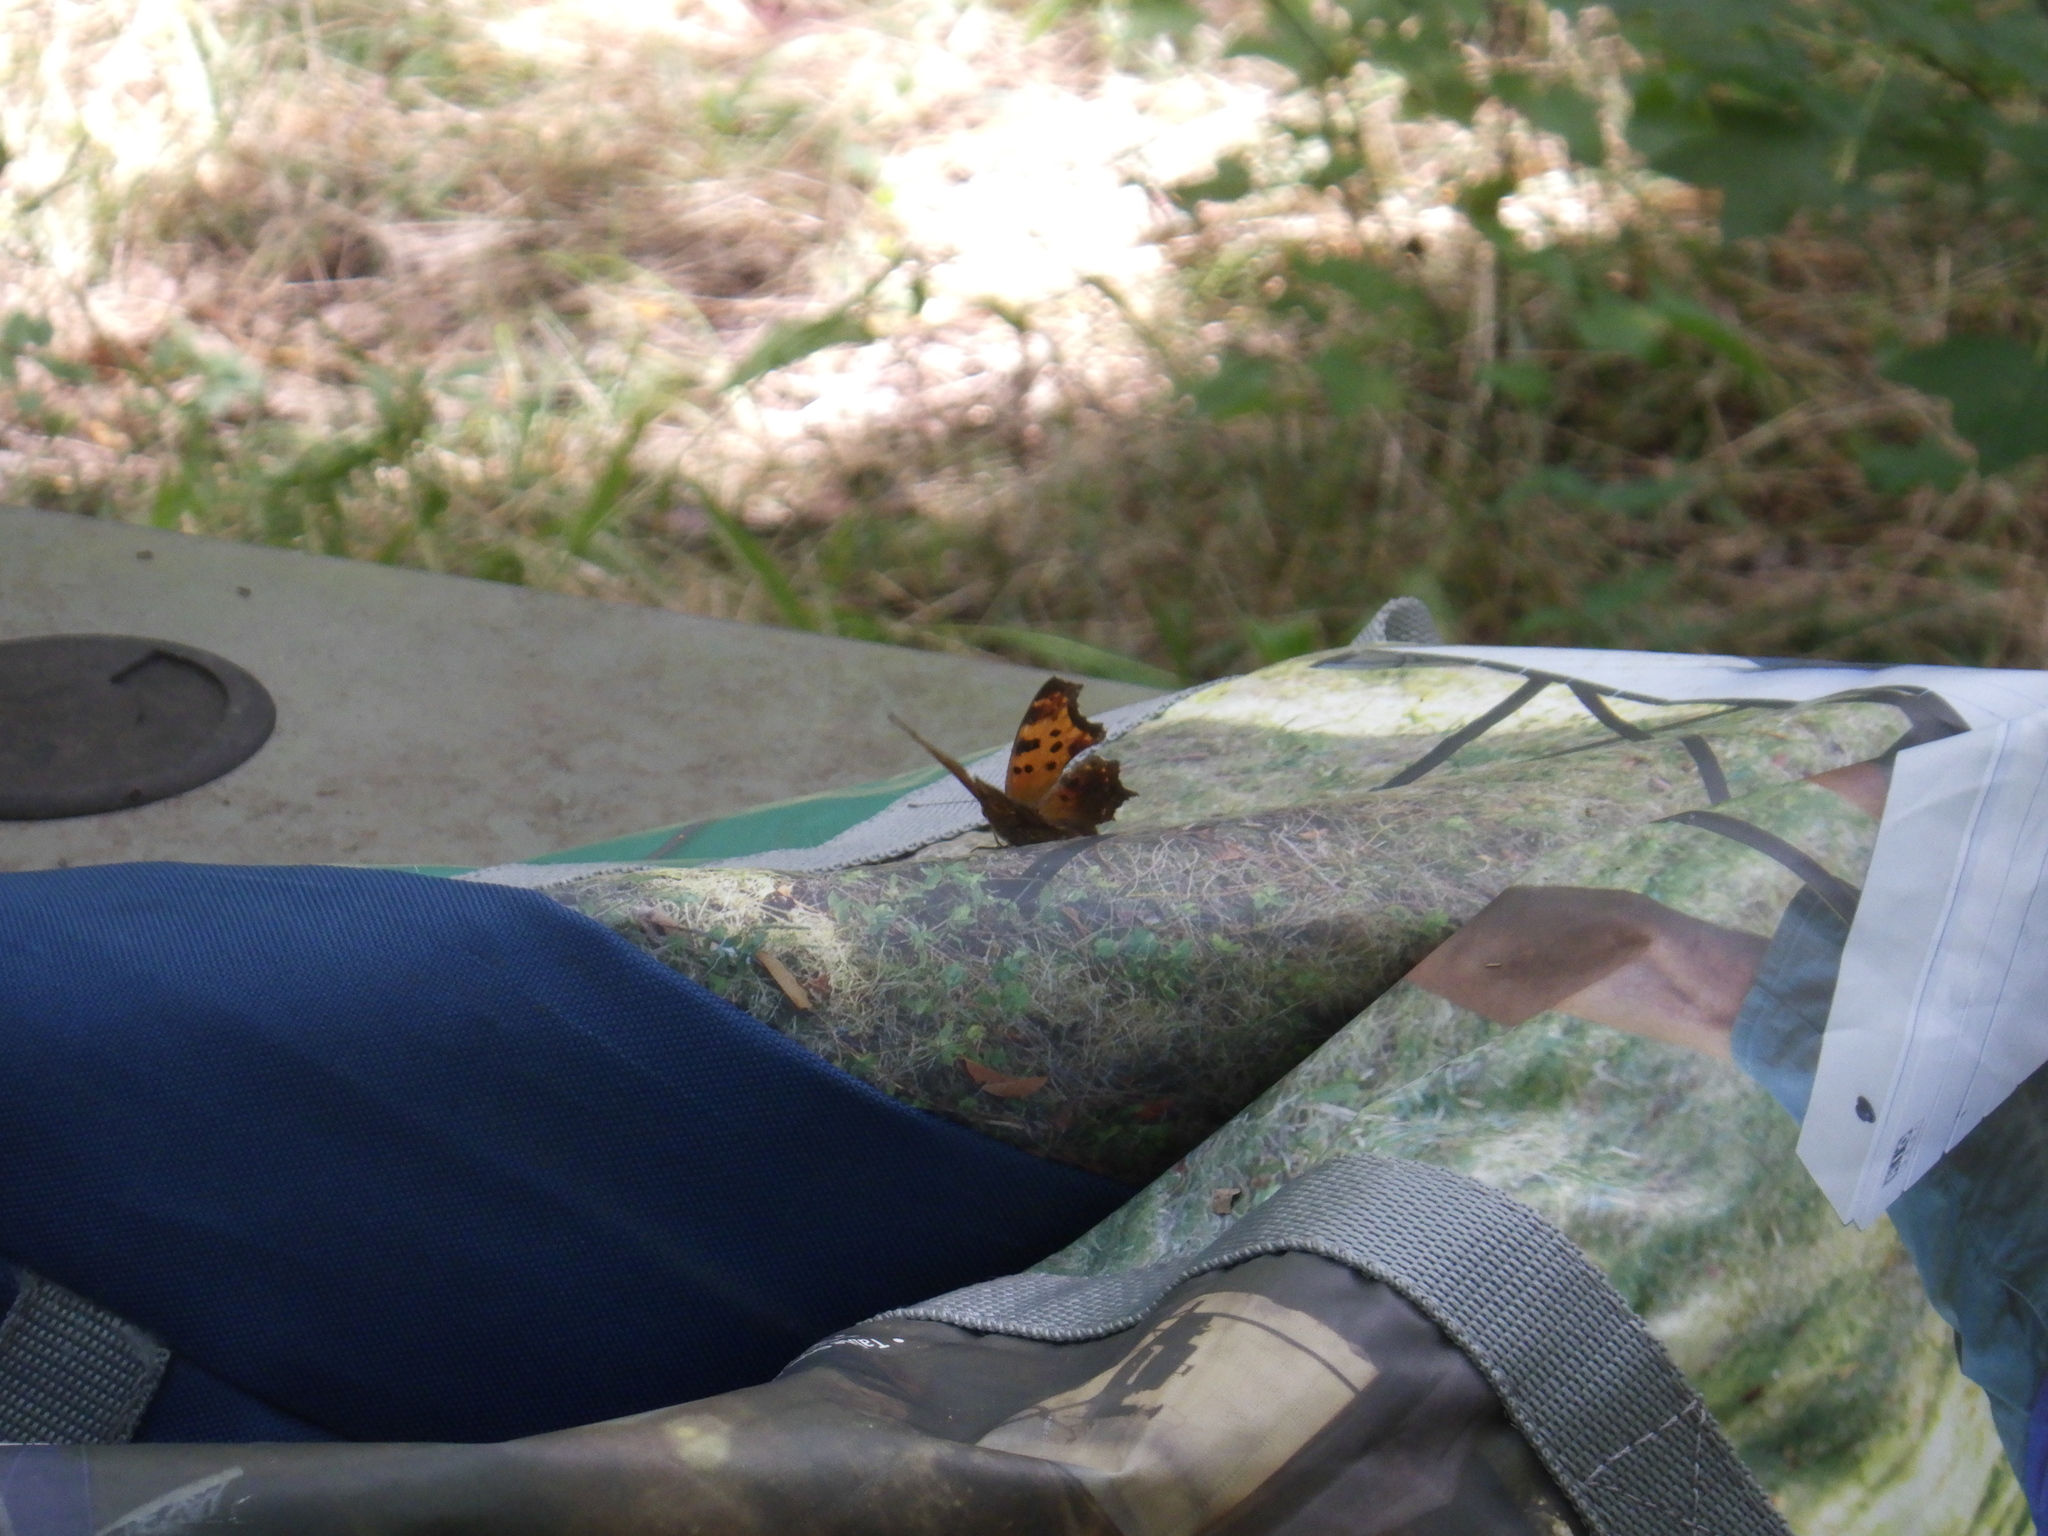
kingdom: Animalia
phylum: Arthropoda
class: Insecta
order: Lepidoptera
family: Nymphalidae
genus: Polygonia
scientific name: Polygonia comma
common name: Eastern comma
